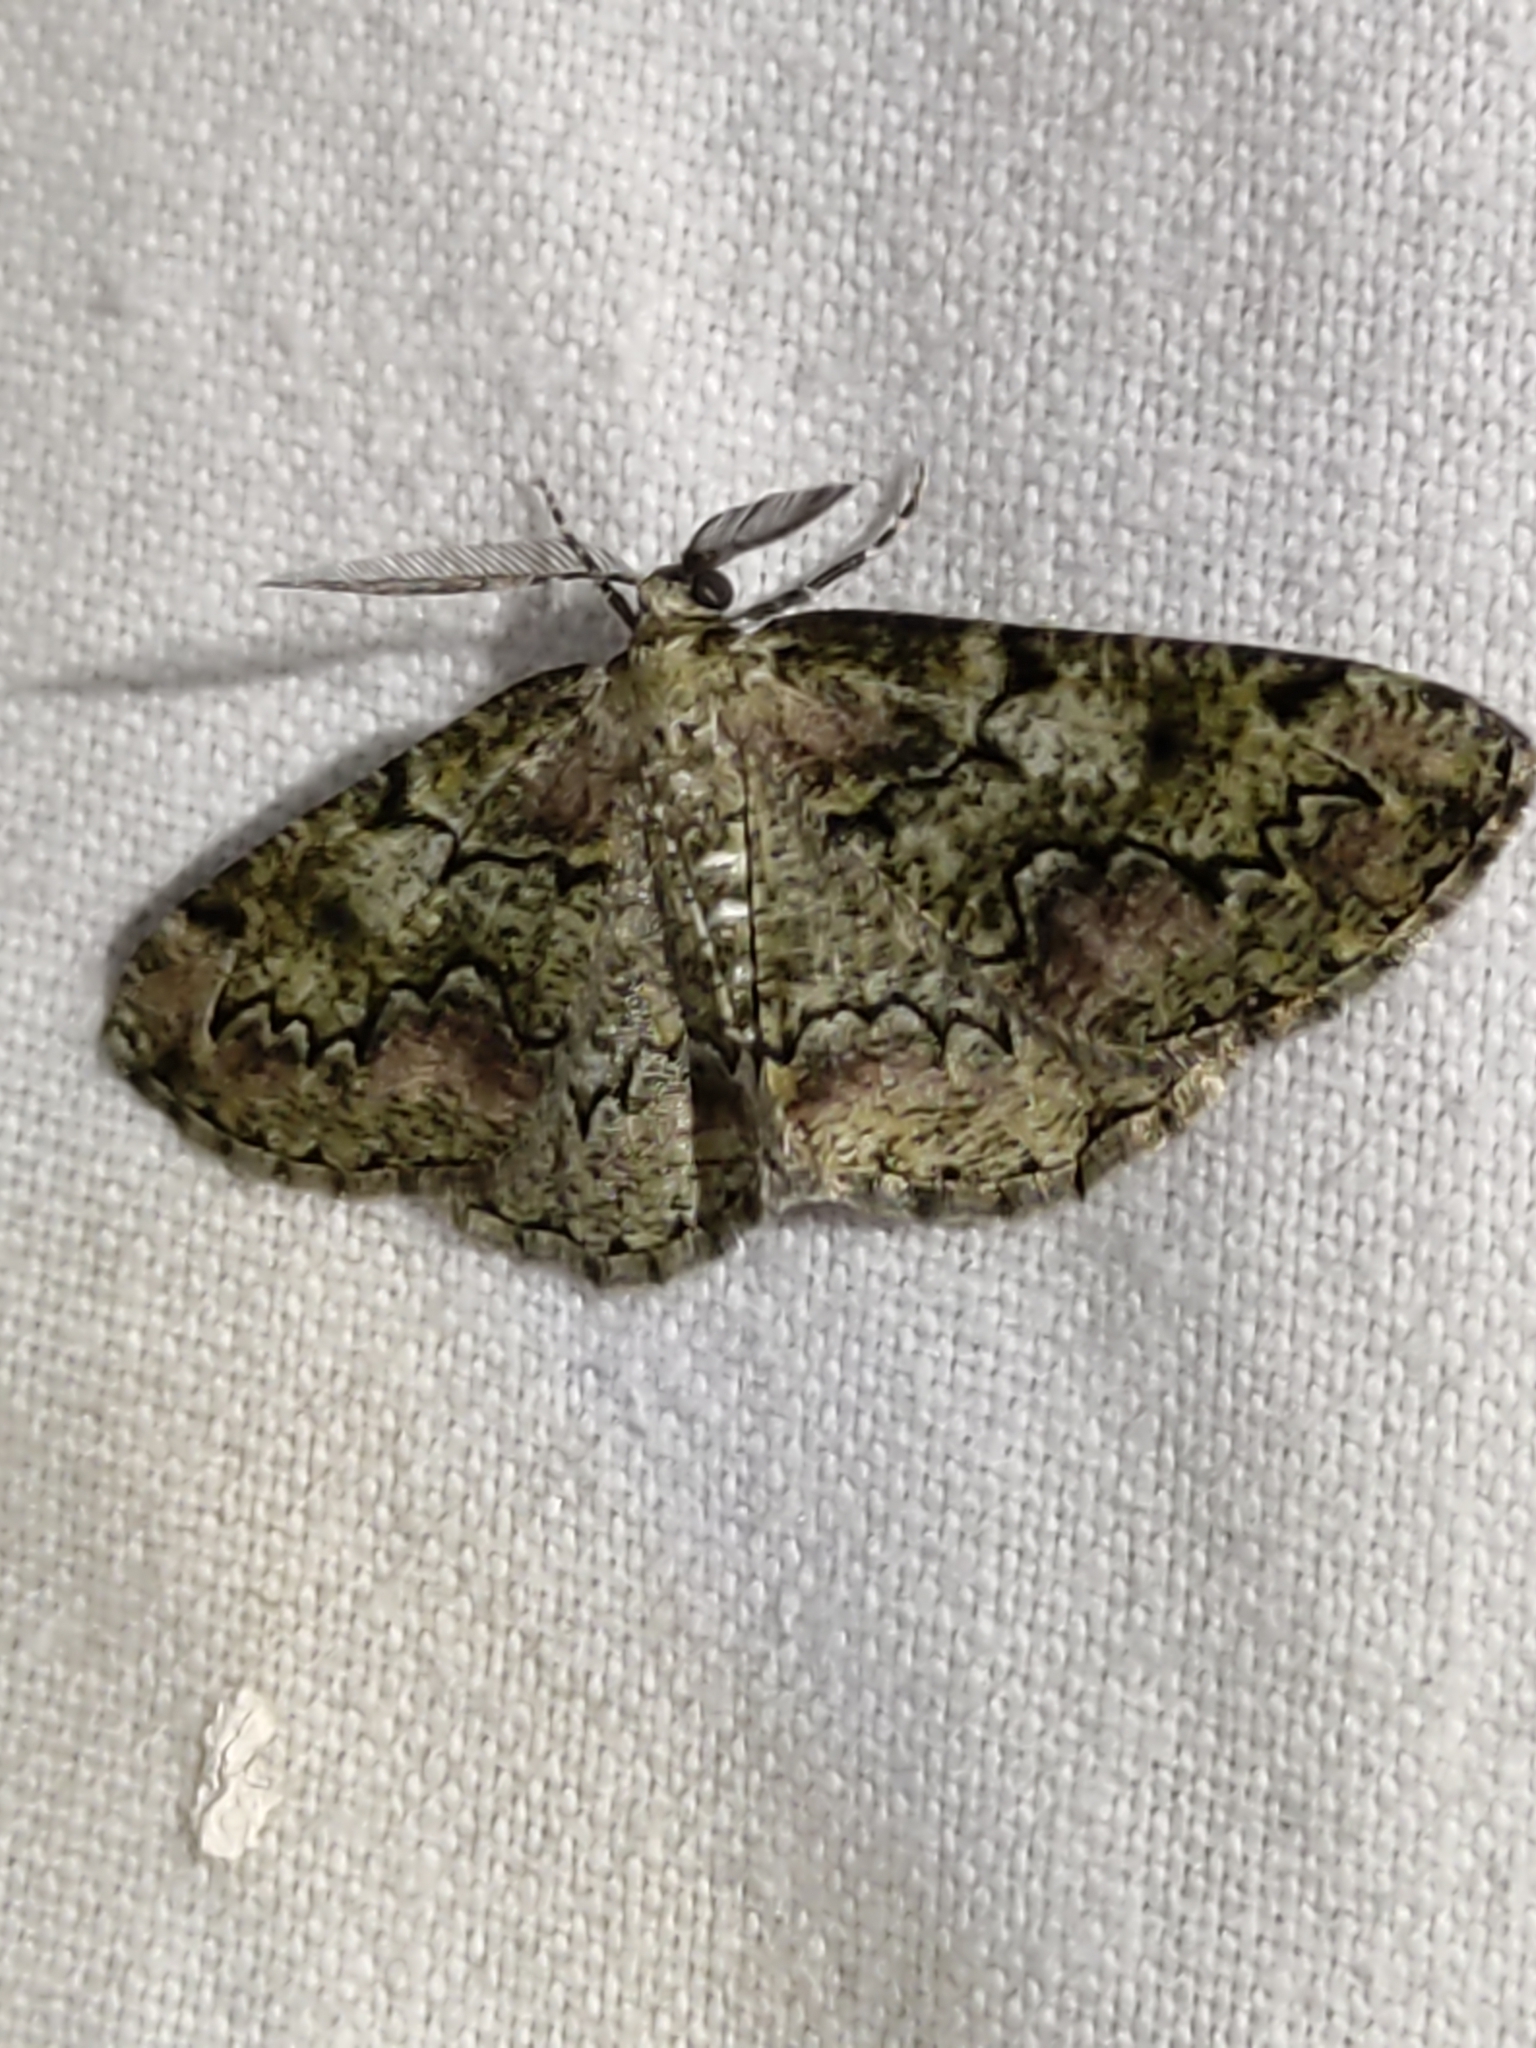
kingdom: Animalia
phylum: Arthropoda
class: Insecta
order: Lepidoptera
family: Geometridae
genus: Cleorodes
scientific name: Cleorodes lichenaria
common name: Brussels lace
